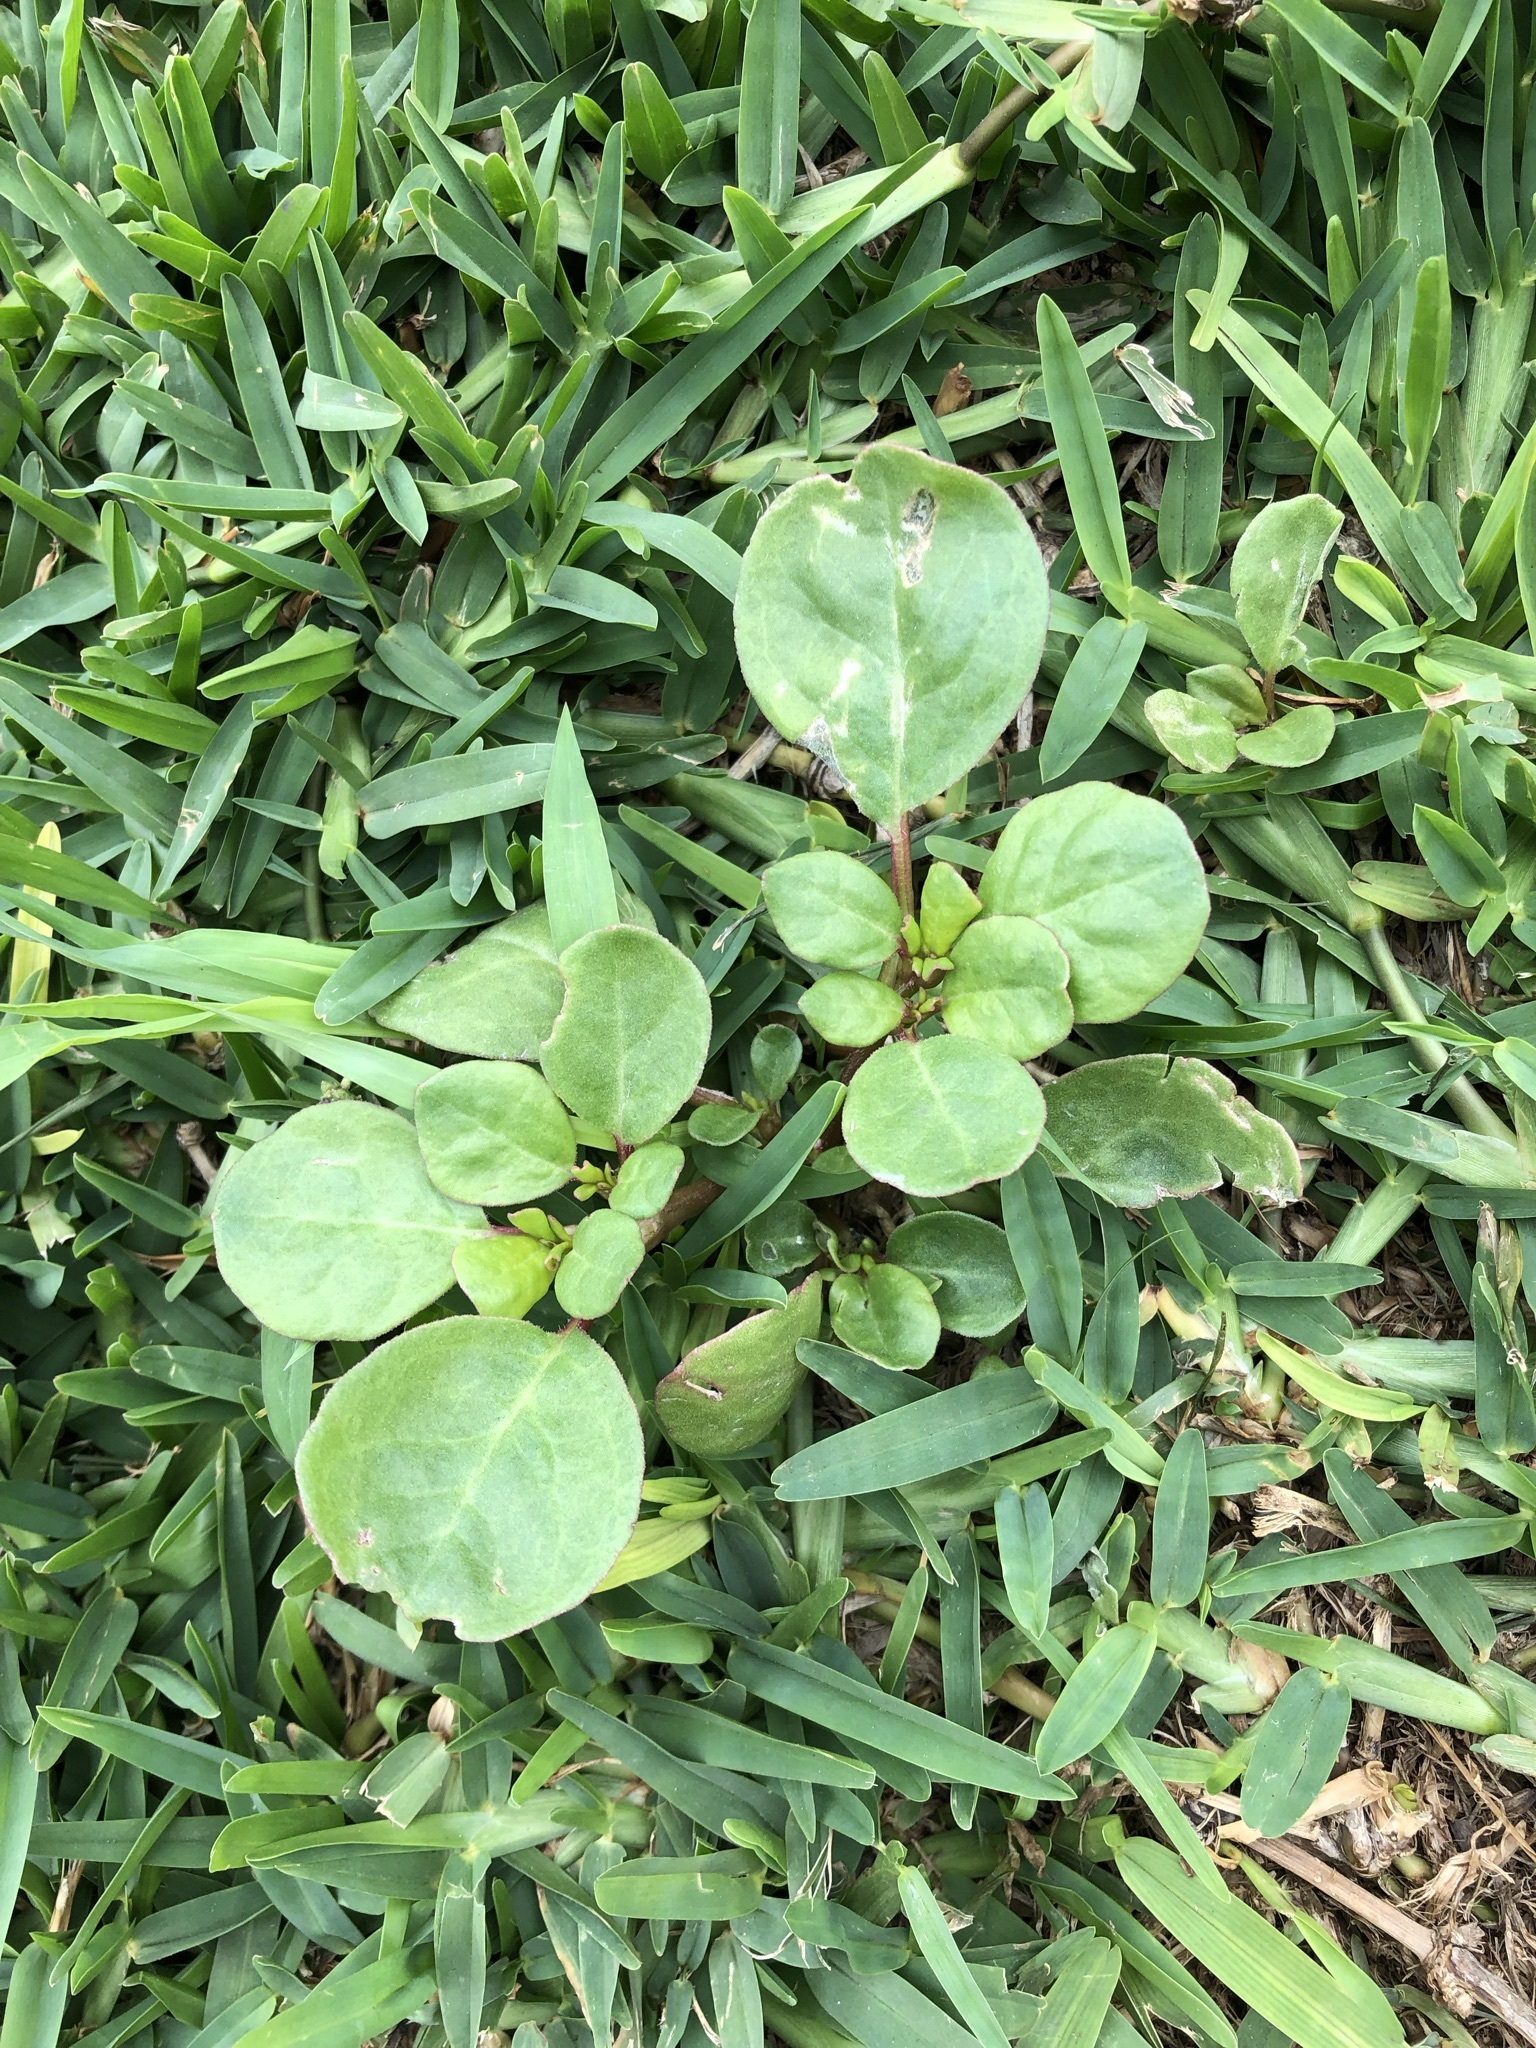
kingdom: Plantae
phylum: Tracheophyta
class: Magnoliopsida
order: Caryophyllales
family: Aizoaceae
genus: Trianthema
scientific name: Trianthema portulacastrum
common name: Desert horsepurslane
